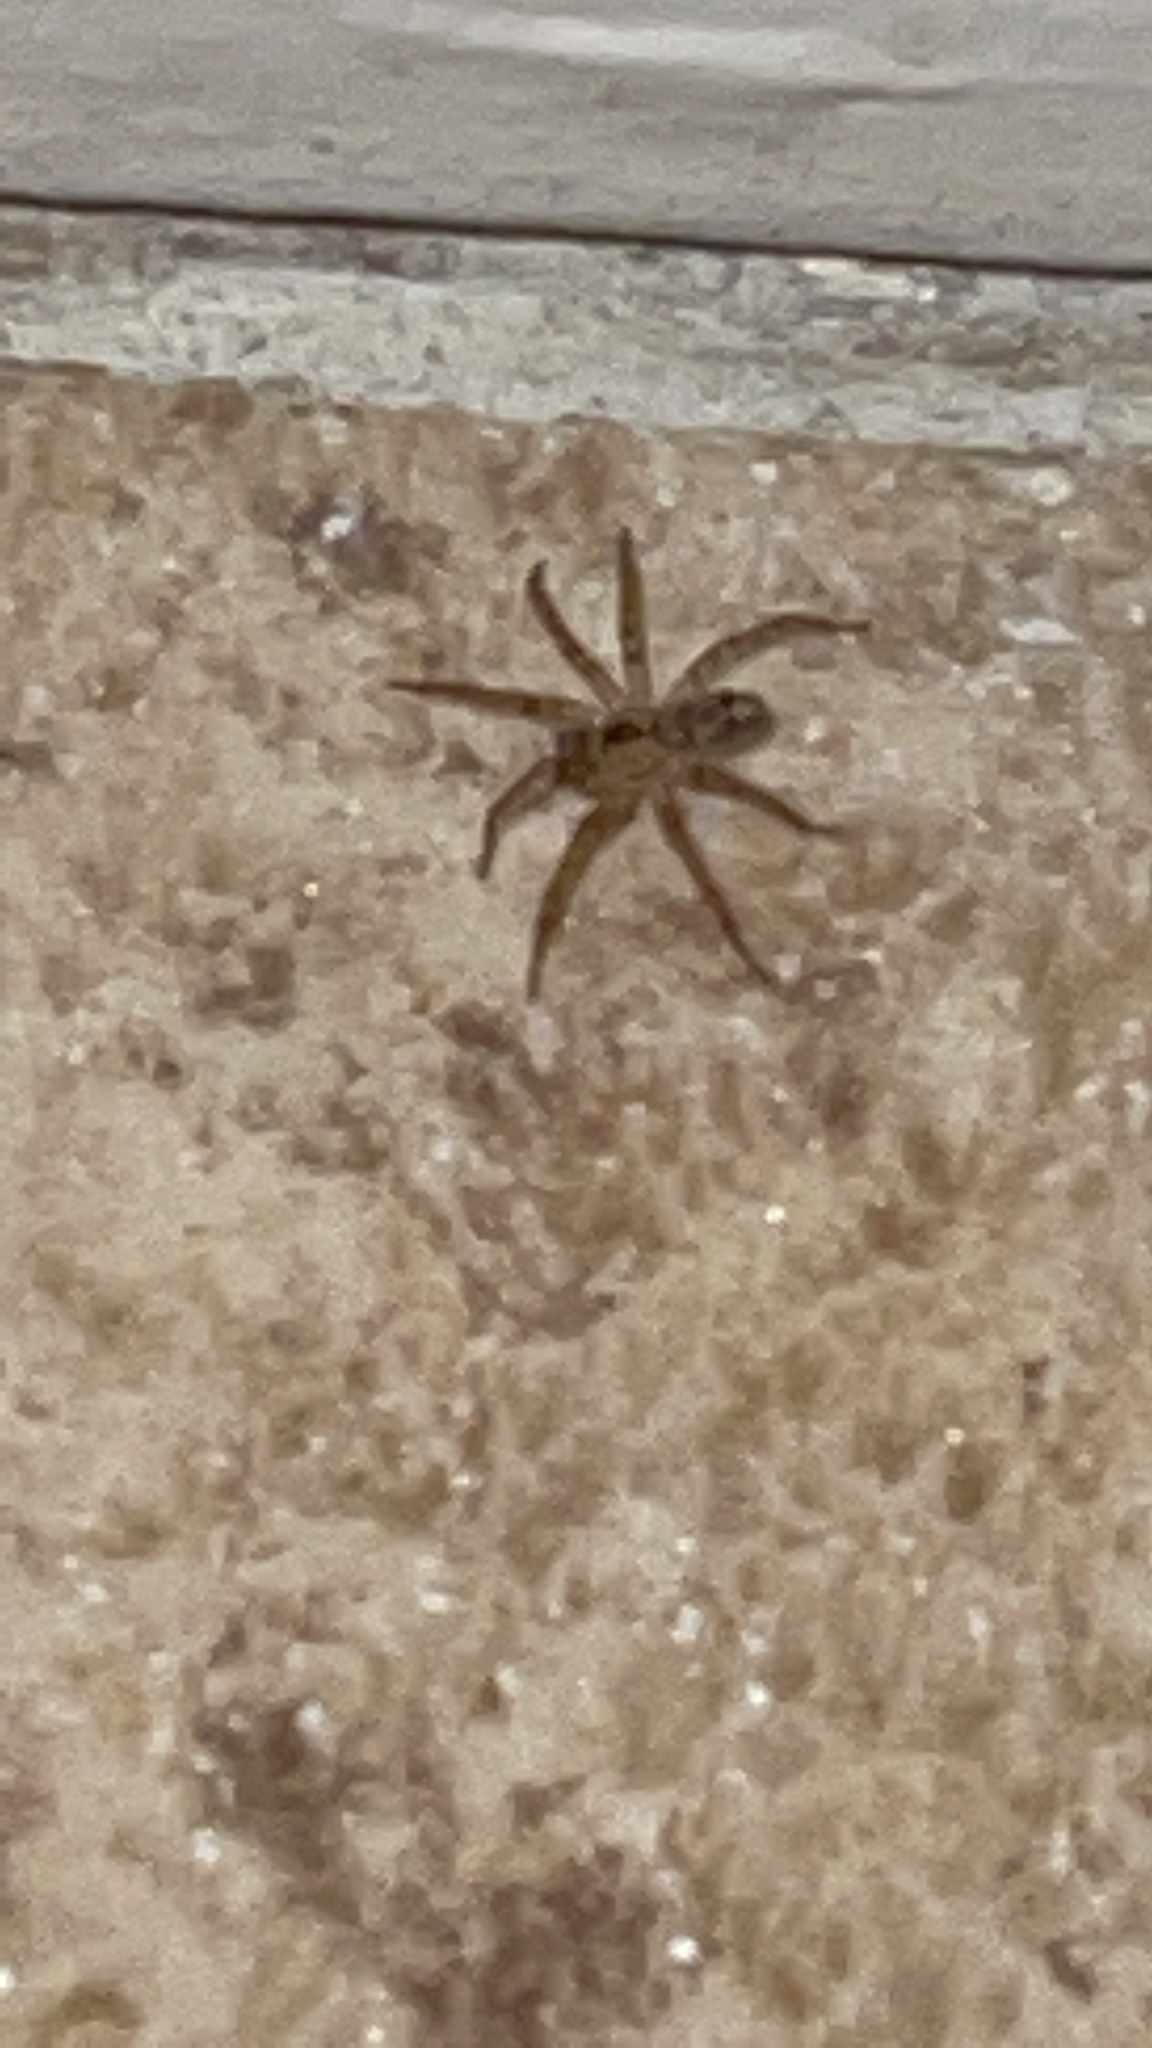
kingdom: Animalia
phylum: Arthropoda
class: Arachnida
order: Araneae
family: Oecobiidae
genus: Oecobius
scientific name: Oecobius
